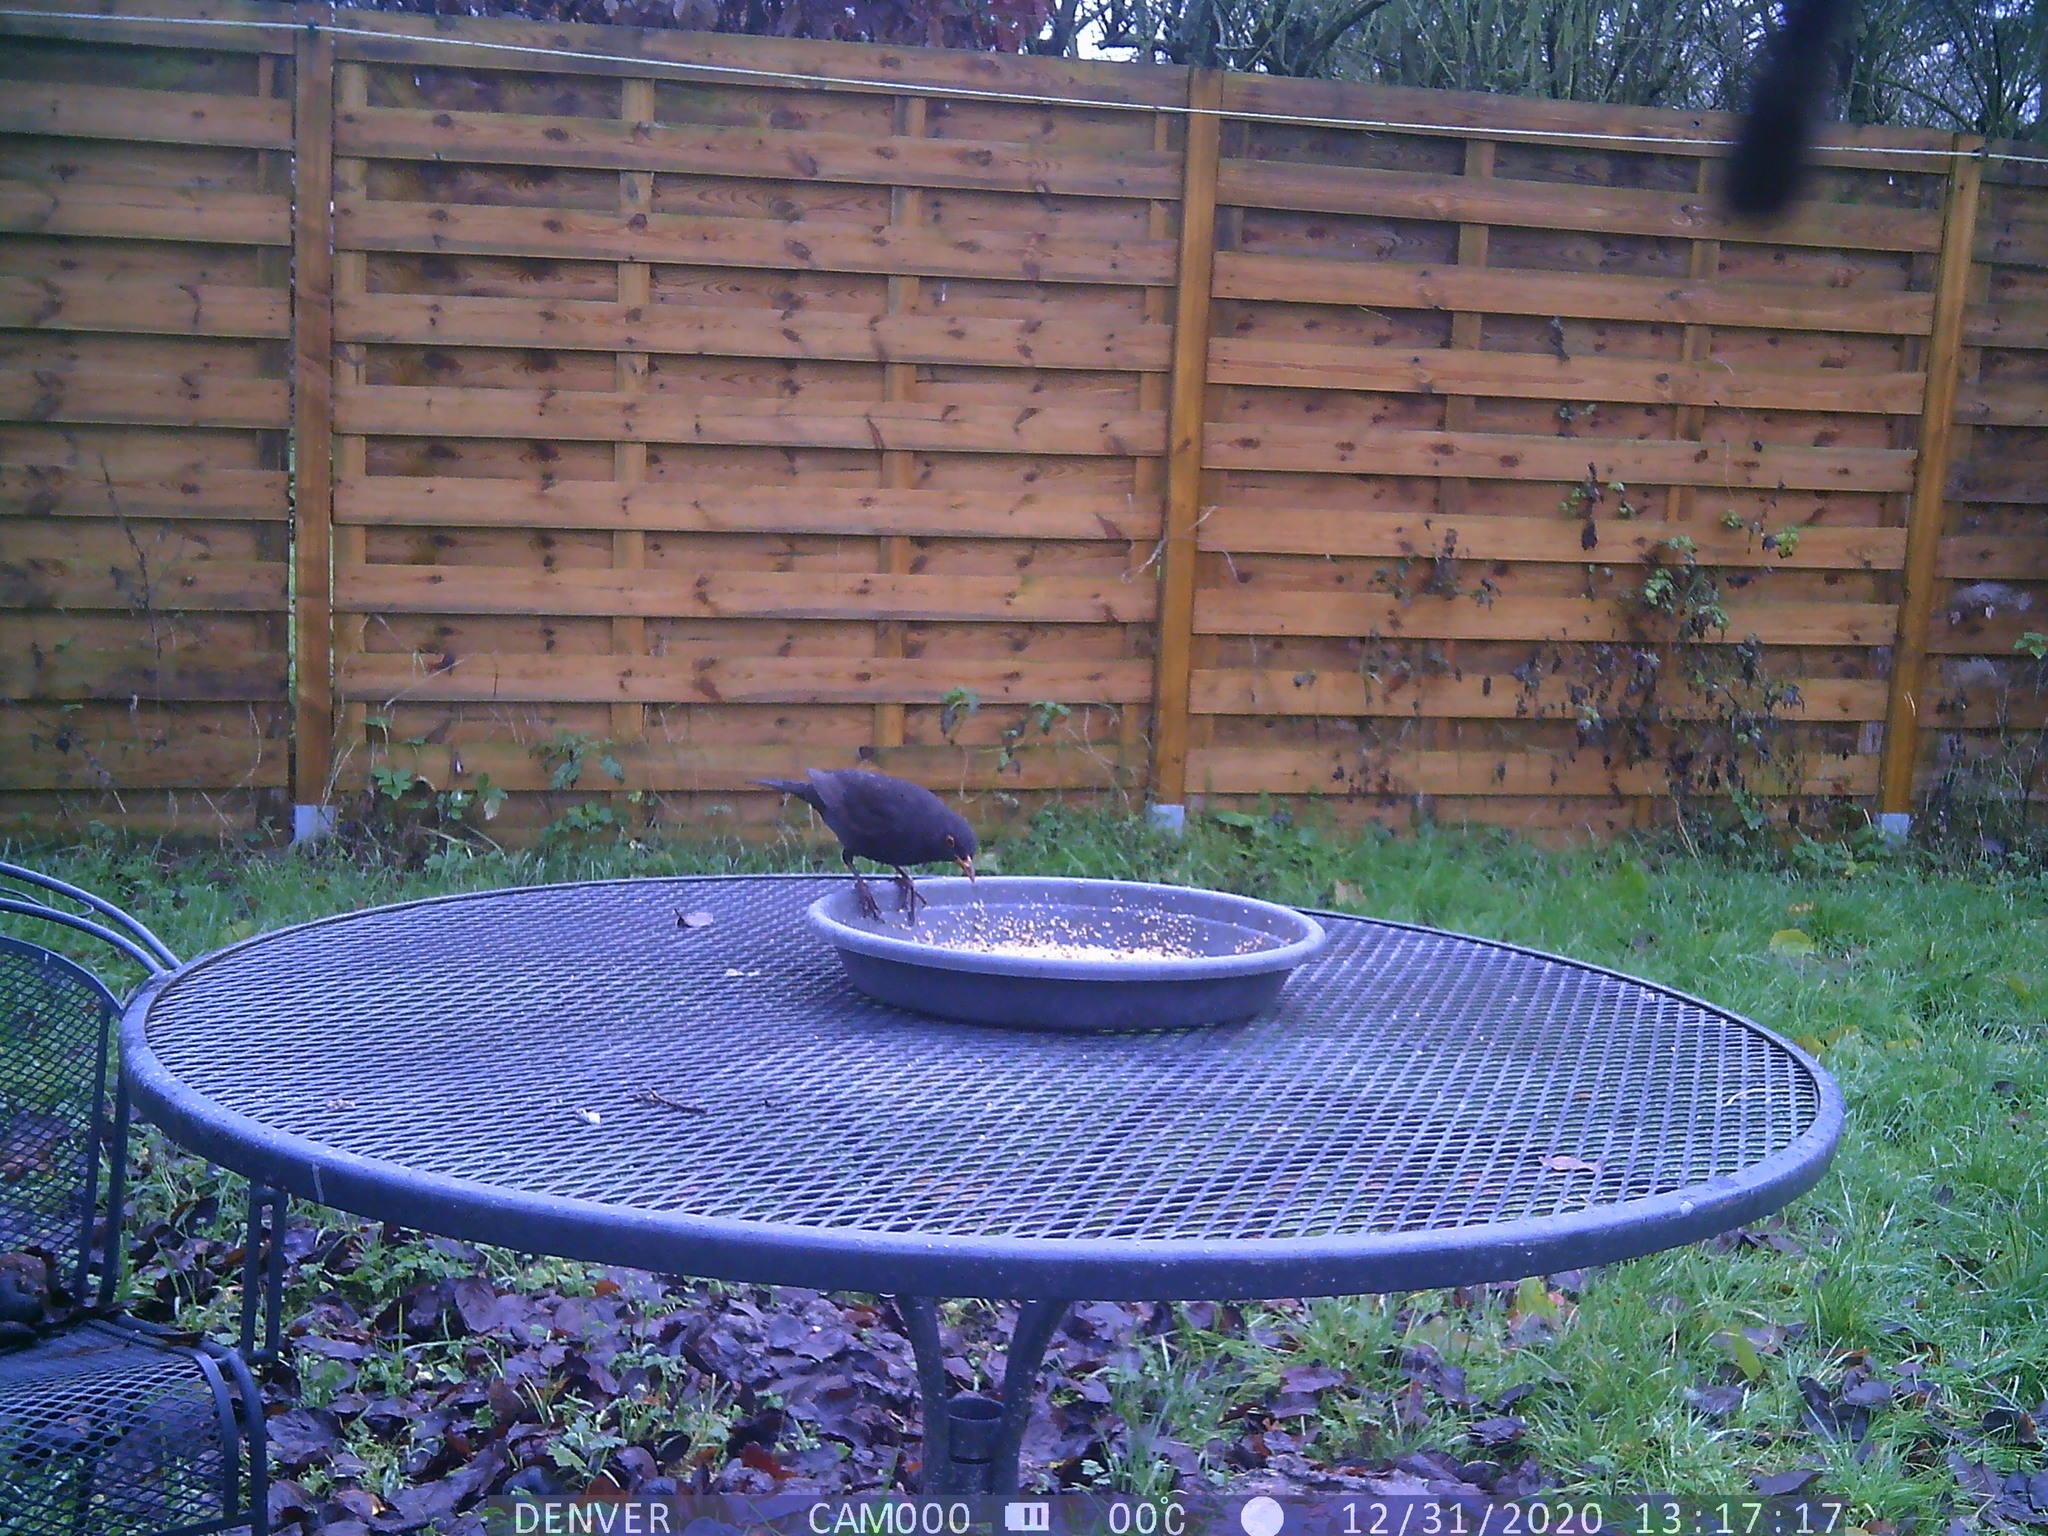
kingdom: Animalia
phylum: Chordata
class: Aves
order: Passeriformes
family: Turdidae
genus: Turdus
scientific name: Turdus merula
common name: Common blackbird
